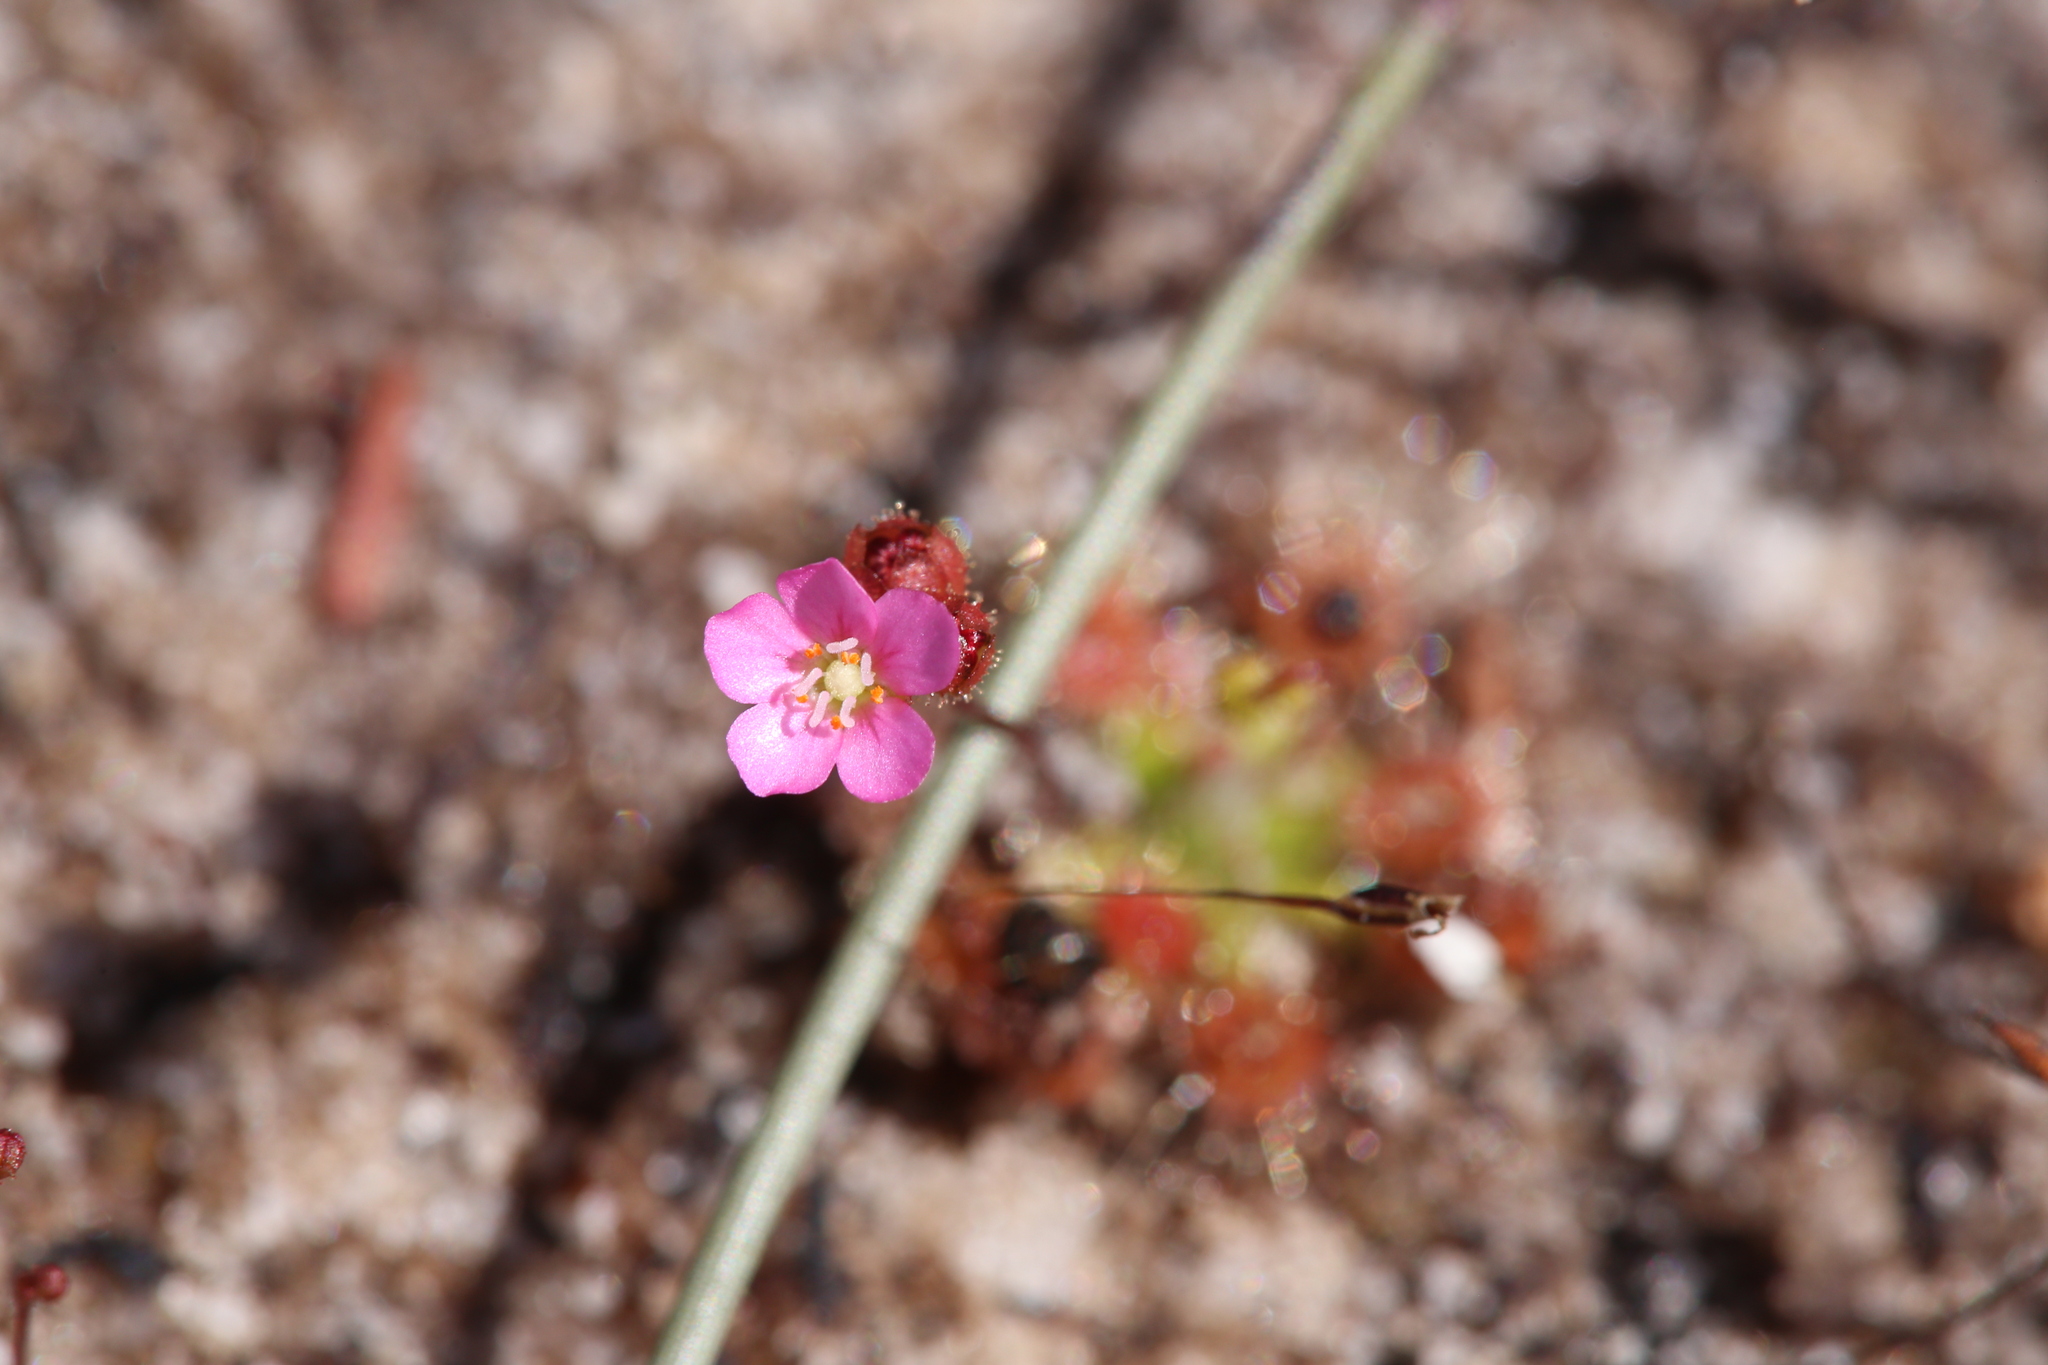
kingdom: Plantae
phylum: Tracheophyta
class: Magnoliopsida
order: Caryophyllales
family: Droseraceae
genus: Drosera
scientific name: Drosera pulchella
